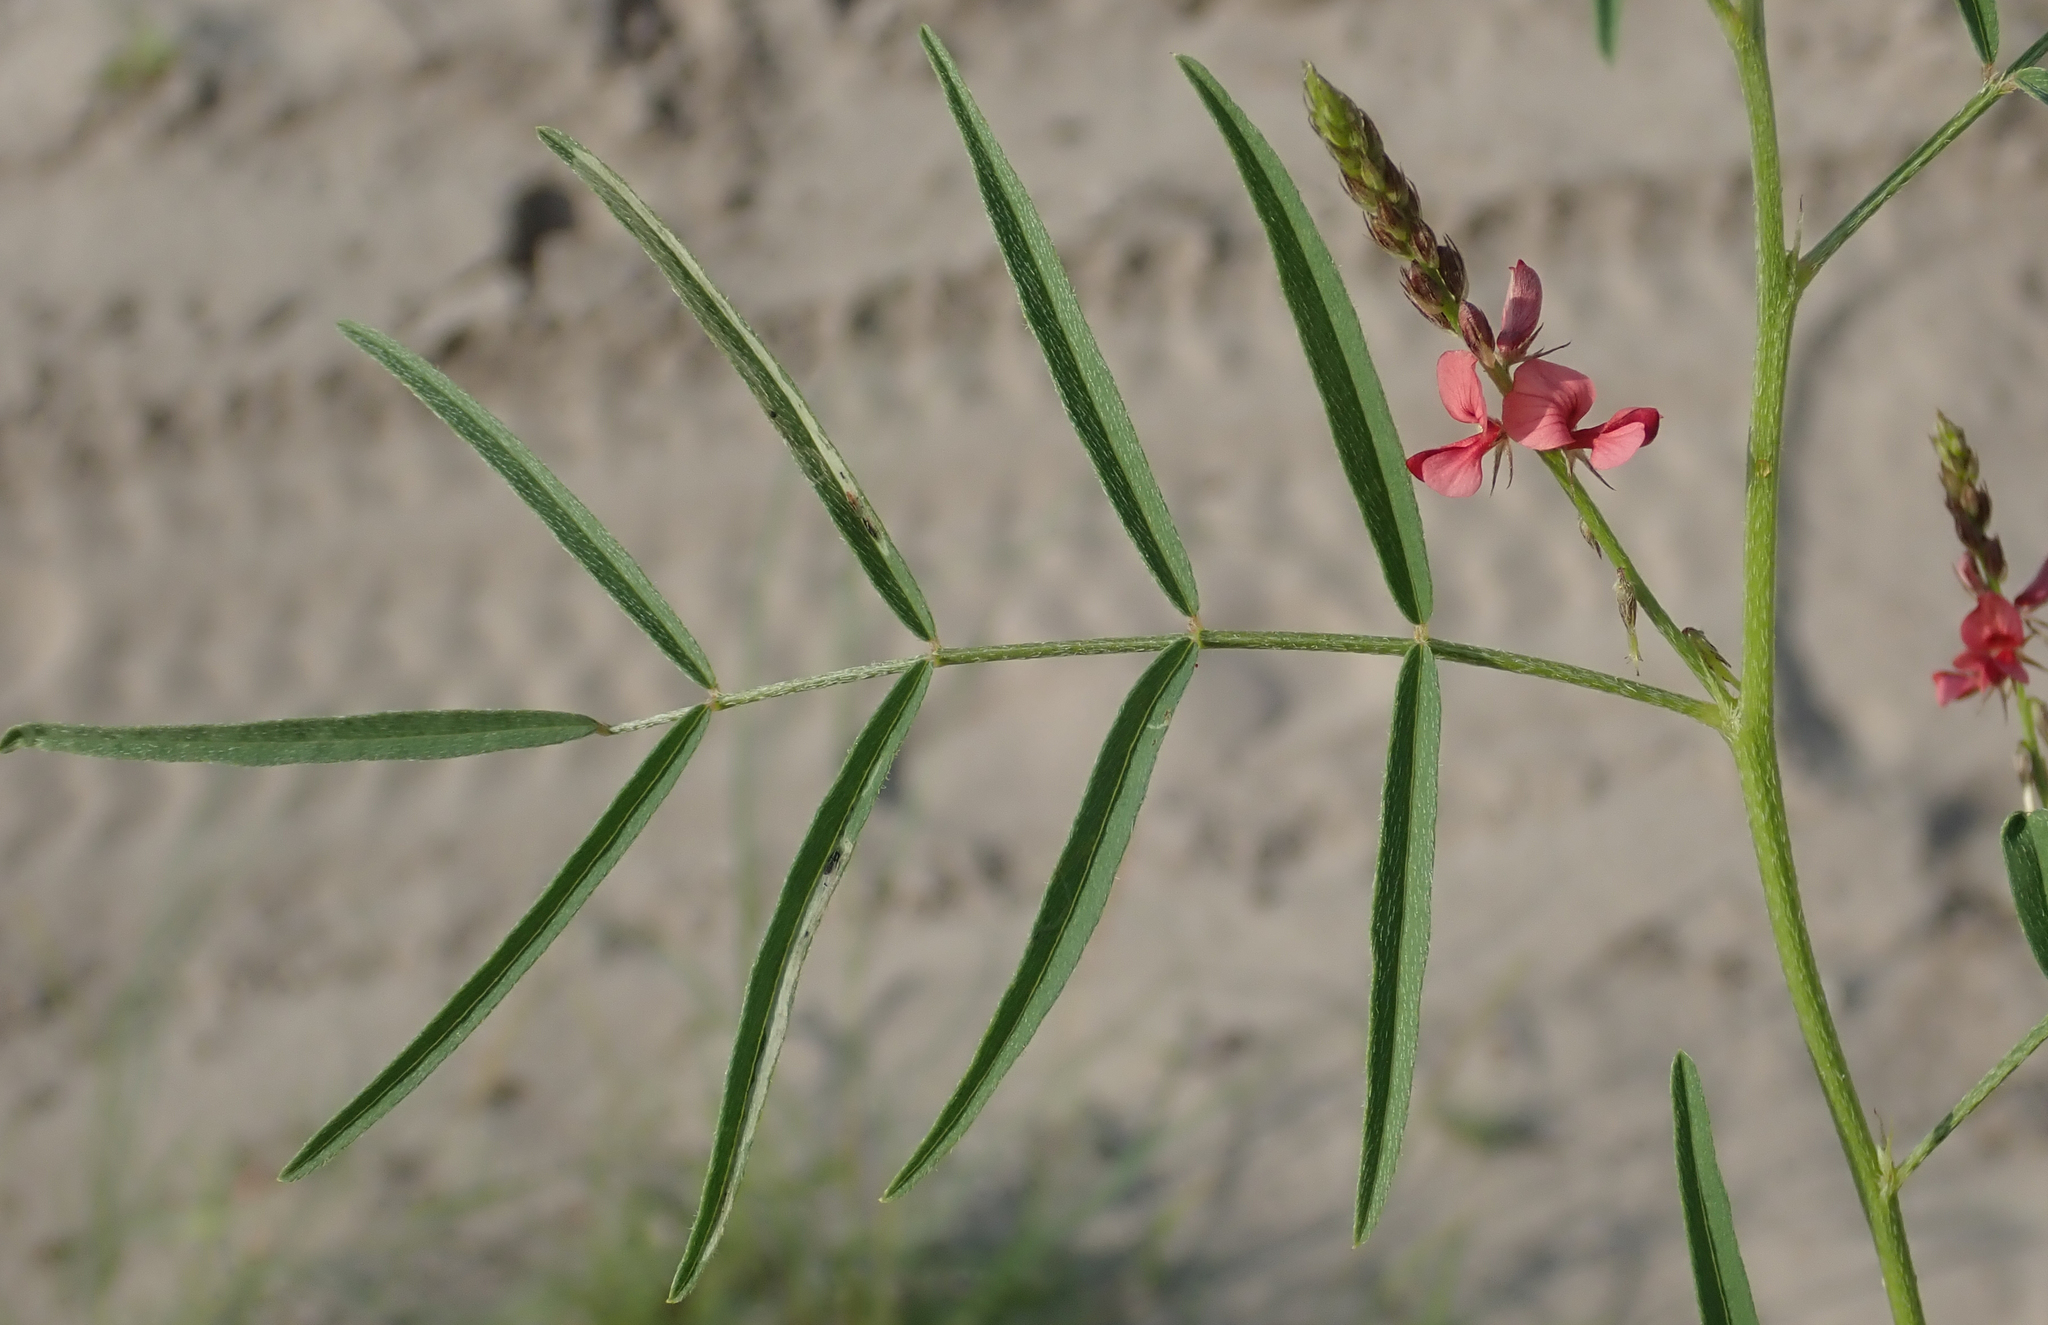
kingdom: Plantae
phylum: Tracheophyta
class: Magnoliopsida
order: Fabales
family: Fabaceae
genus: Indigofera
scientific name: Indigofera charlieriana
